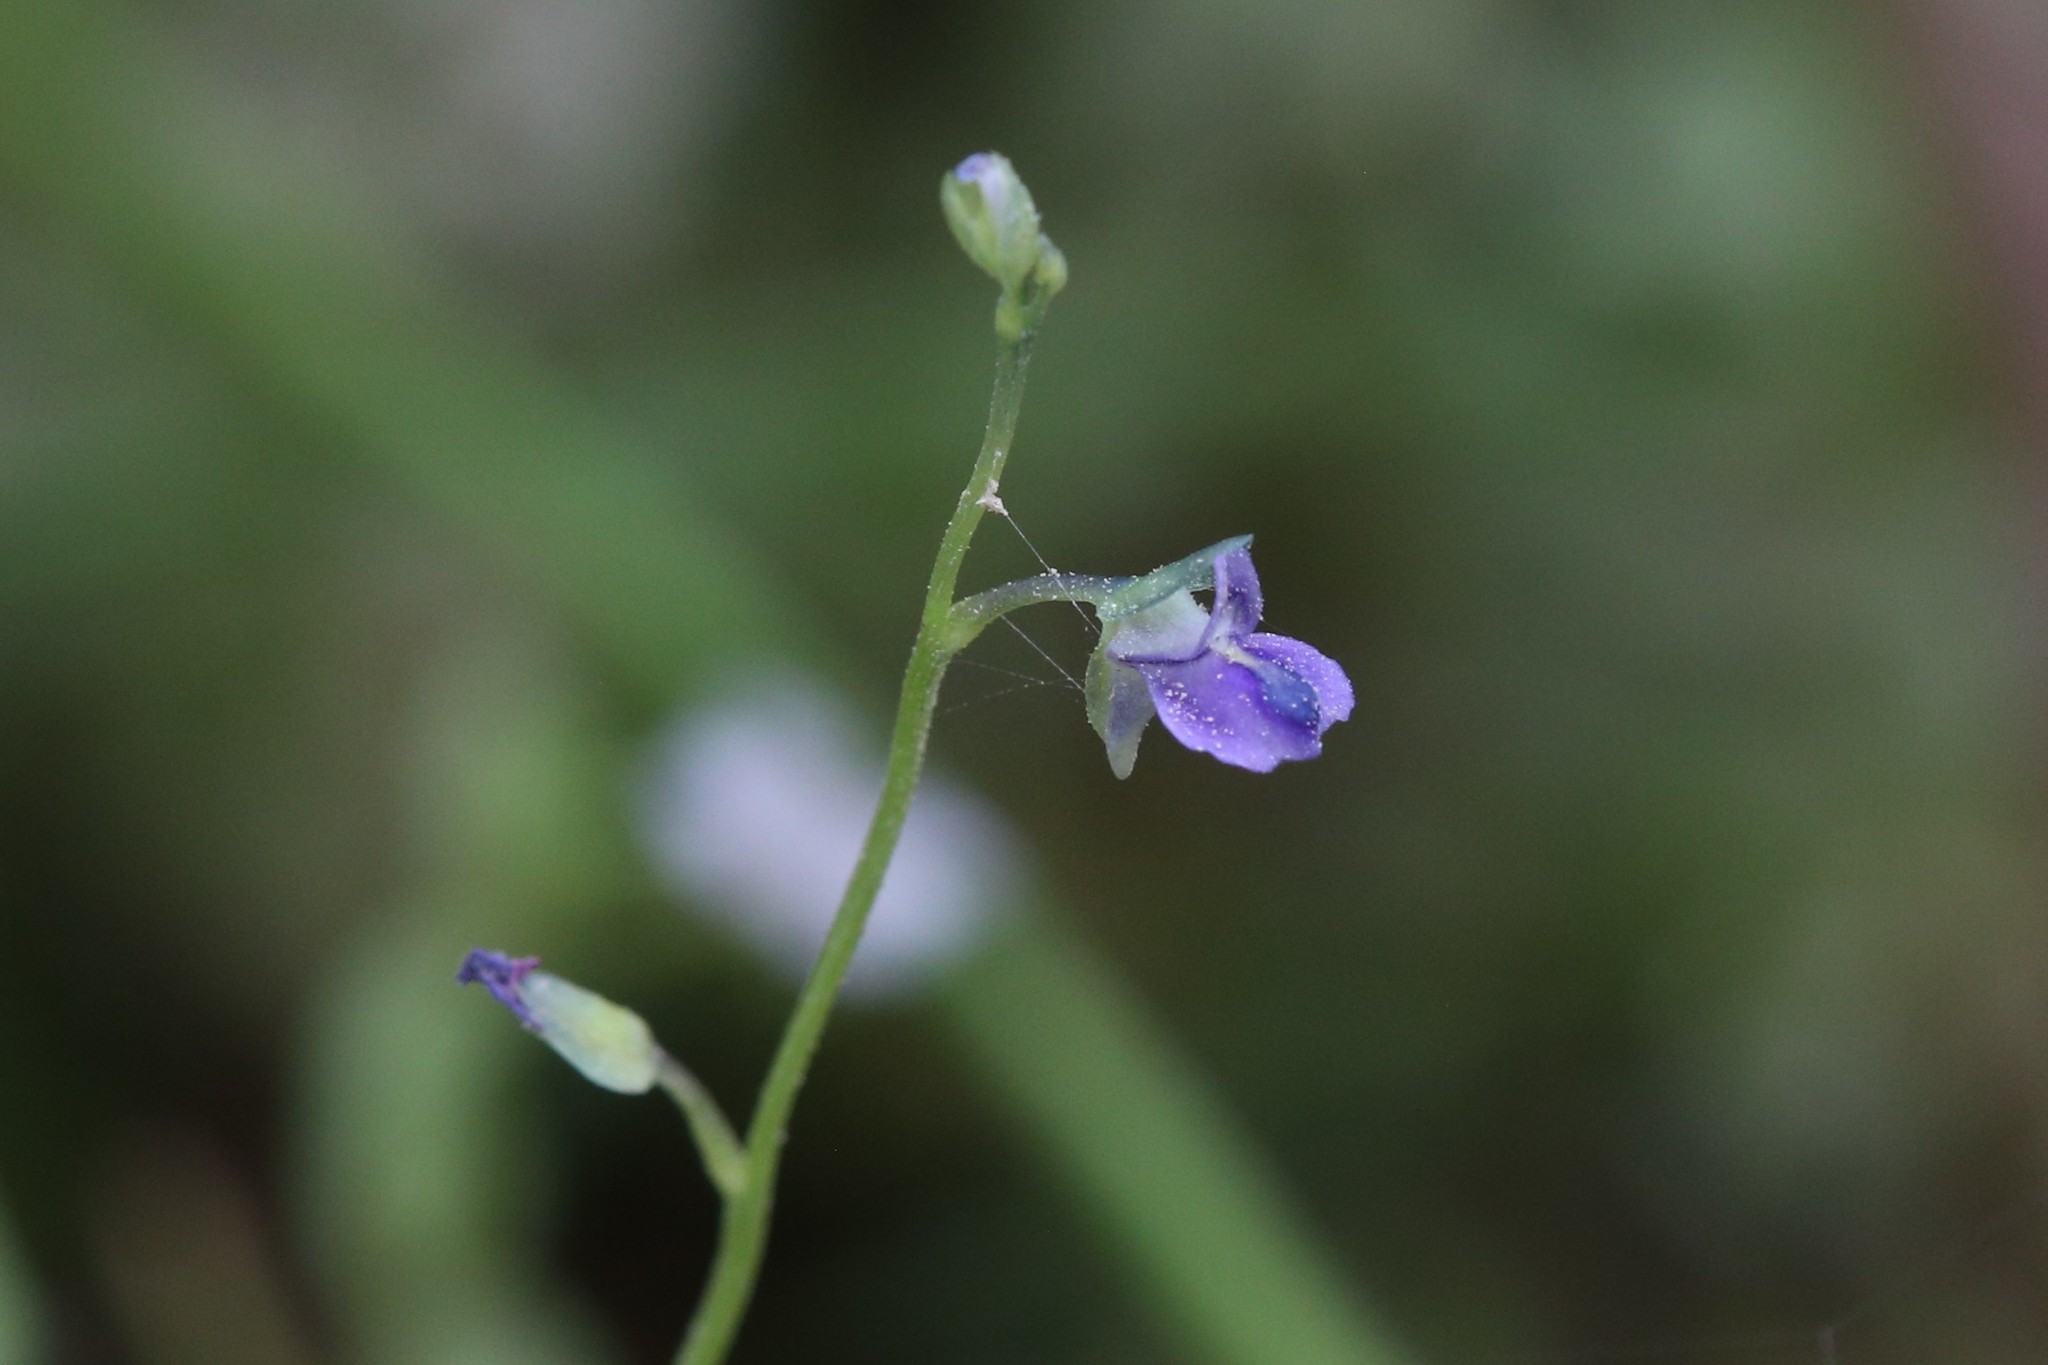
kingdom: Plantae
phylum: Tracheophyta
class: Magnoliopsida
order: Lamiales
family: Lentibulariaceae
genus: Utricularia
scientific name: Utricularia uliginosa
